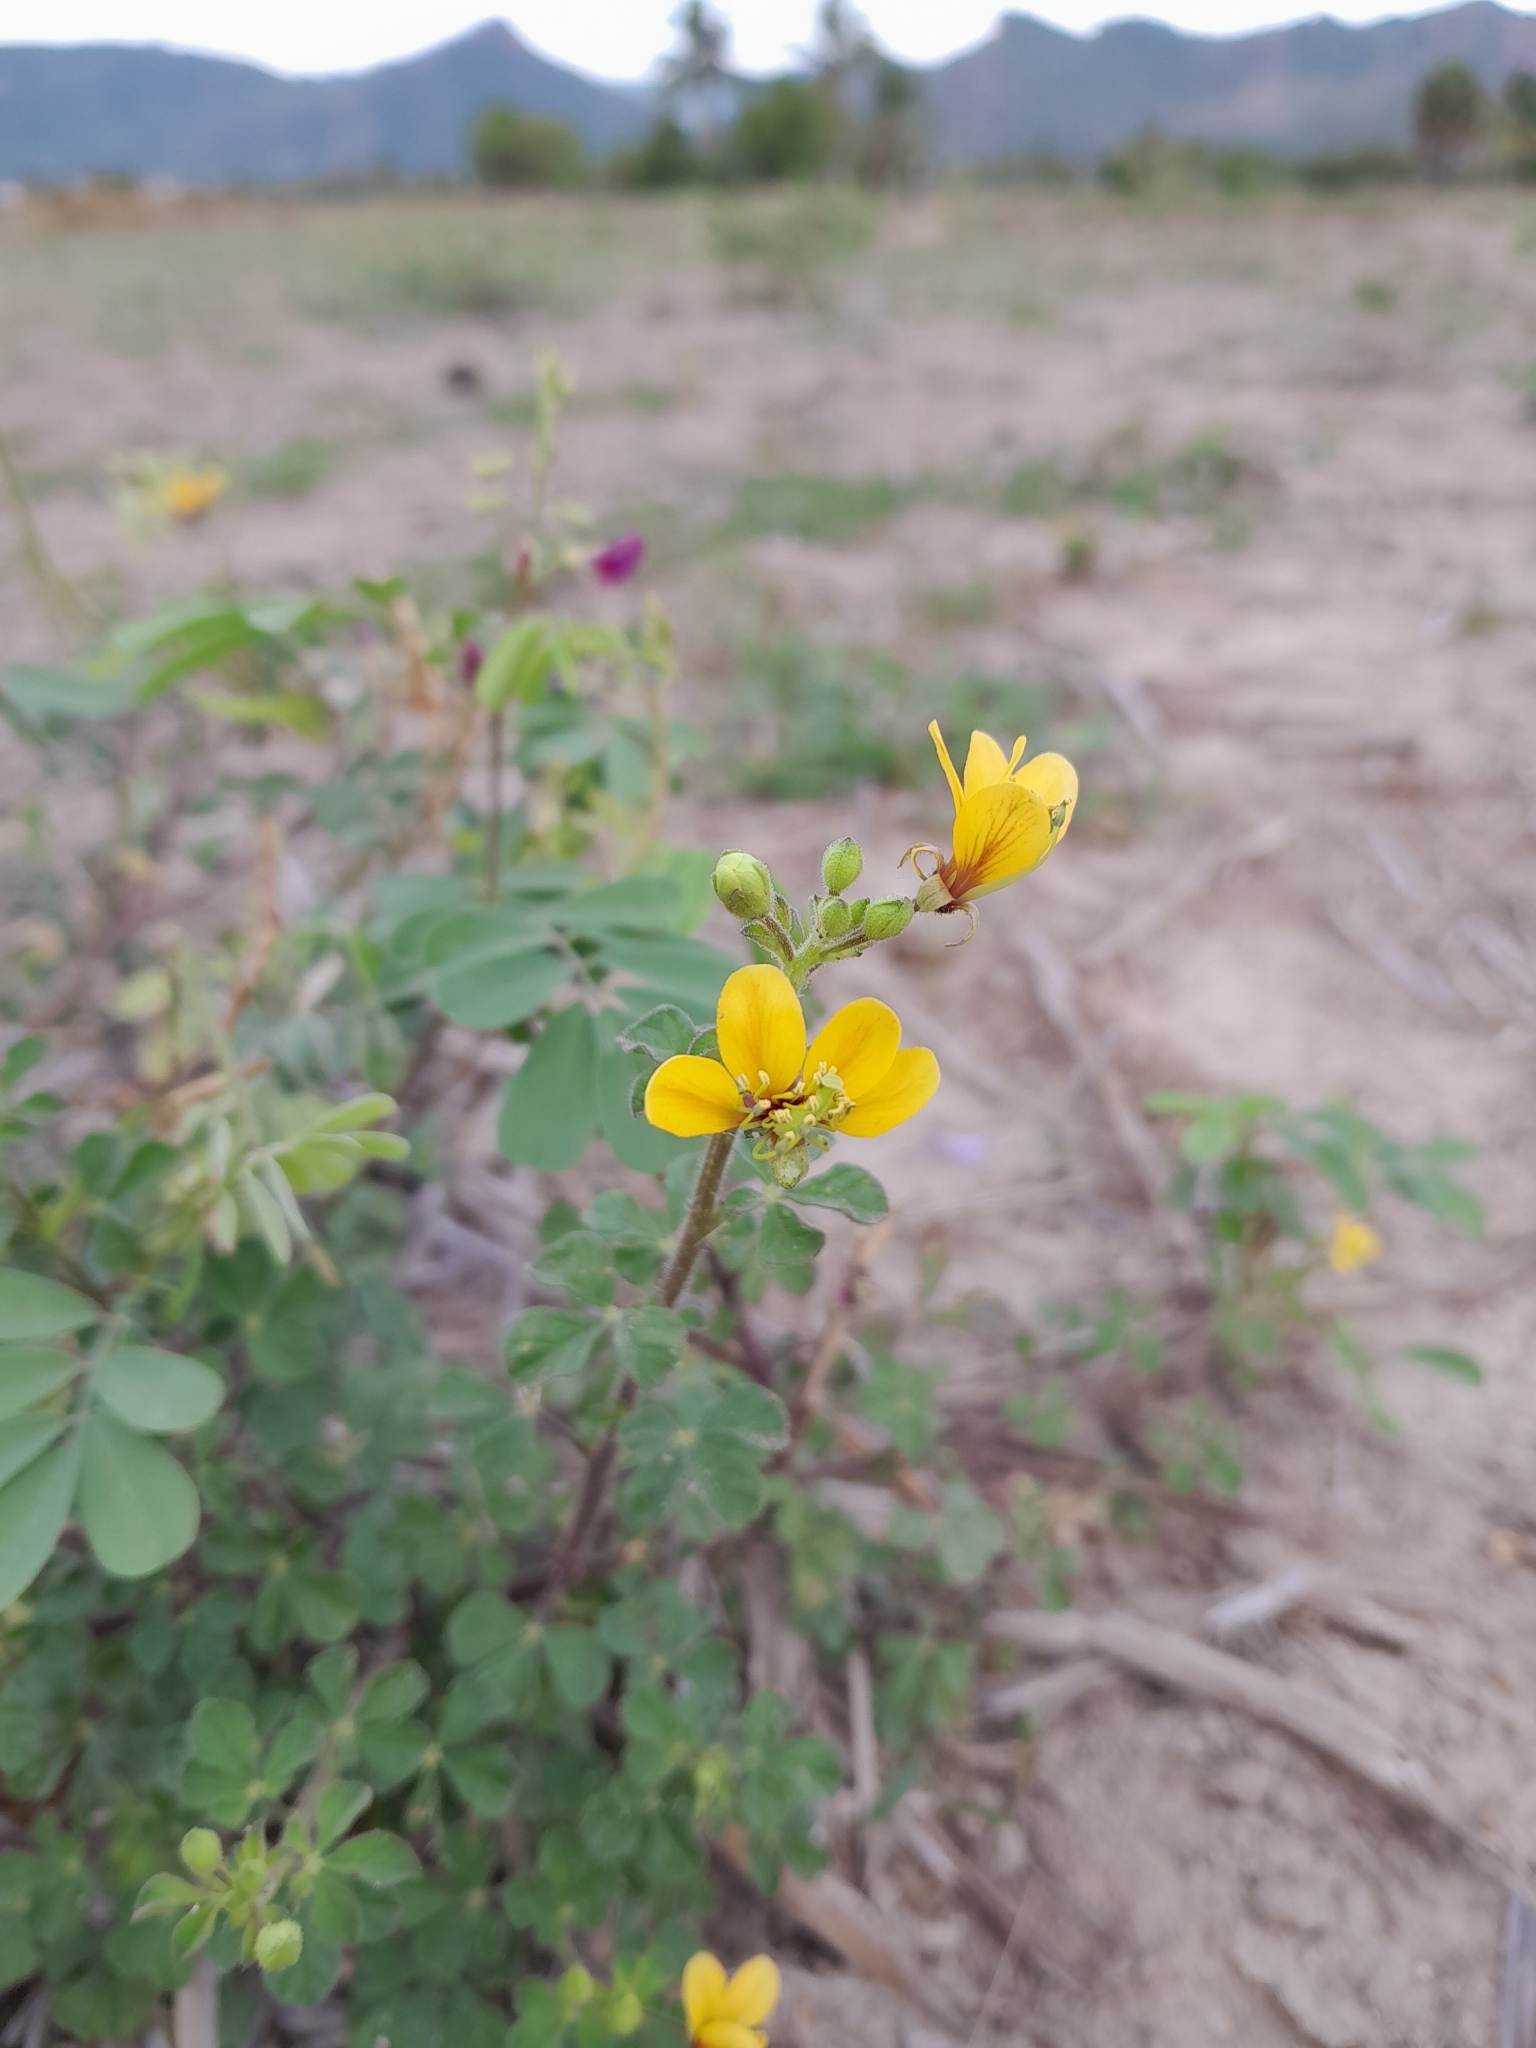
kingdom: Plantae
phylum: Tracheophyta
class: Magnoliopsida
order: Brassicales
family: Cleomaceae
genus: Arivela
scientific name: Arivela viscosa
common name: Asian spiderflower
